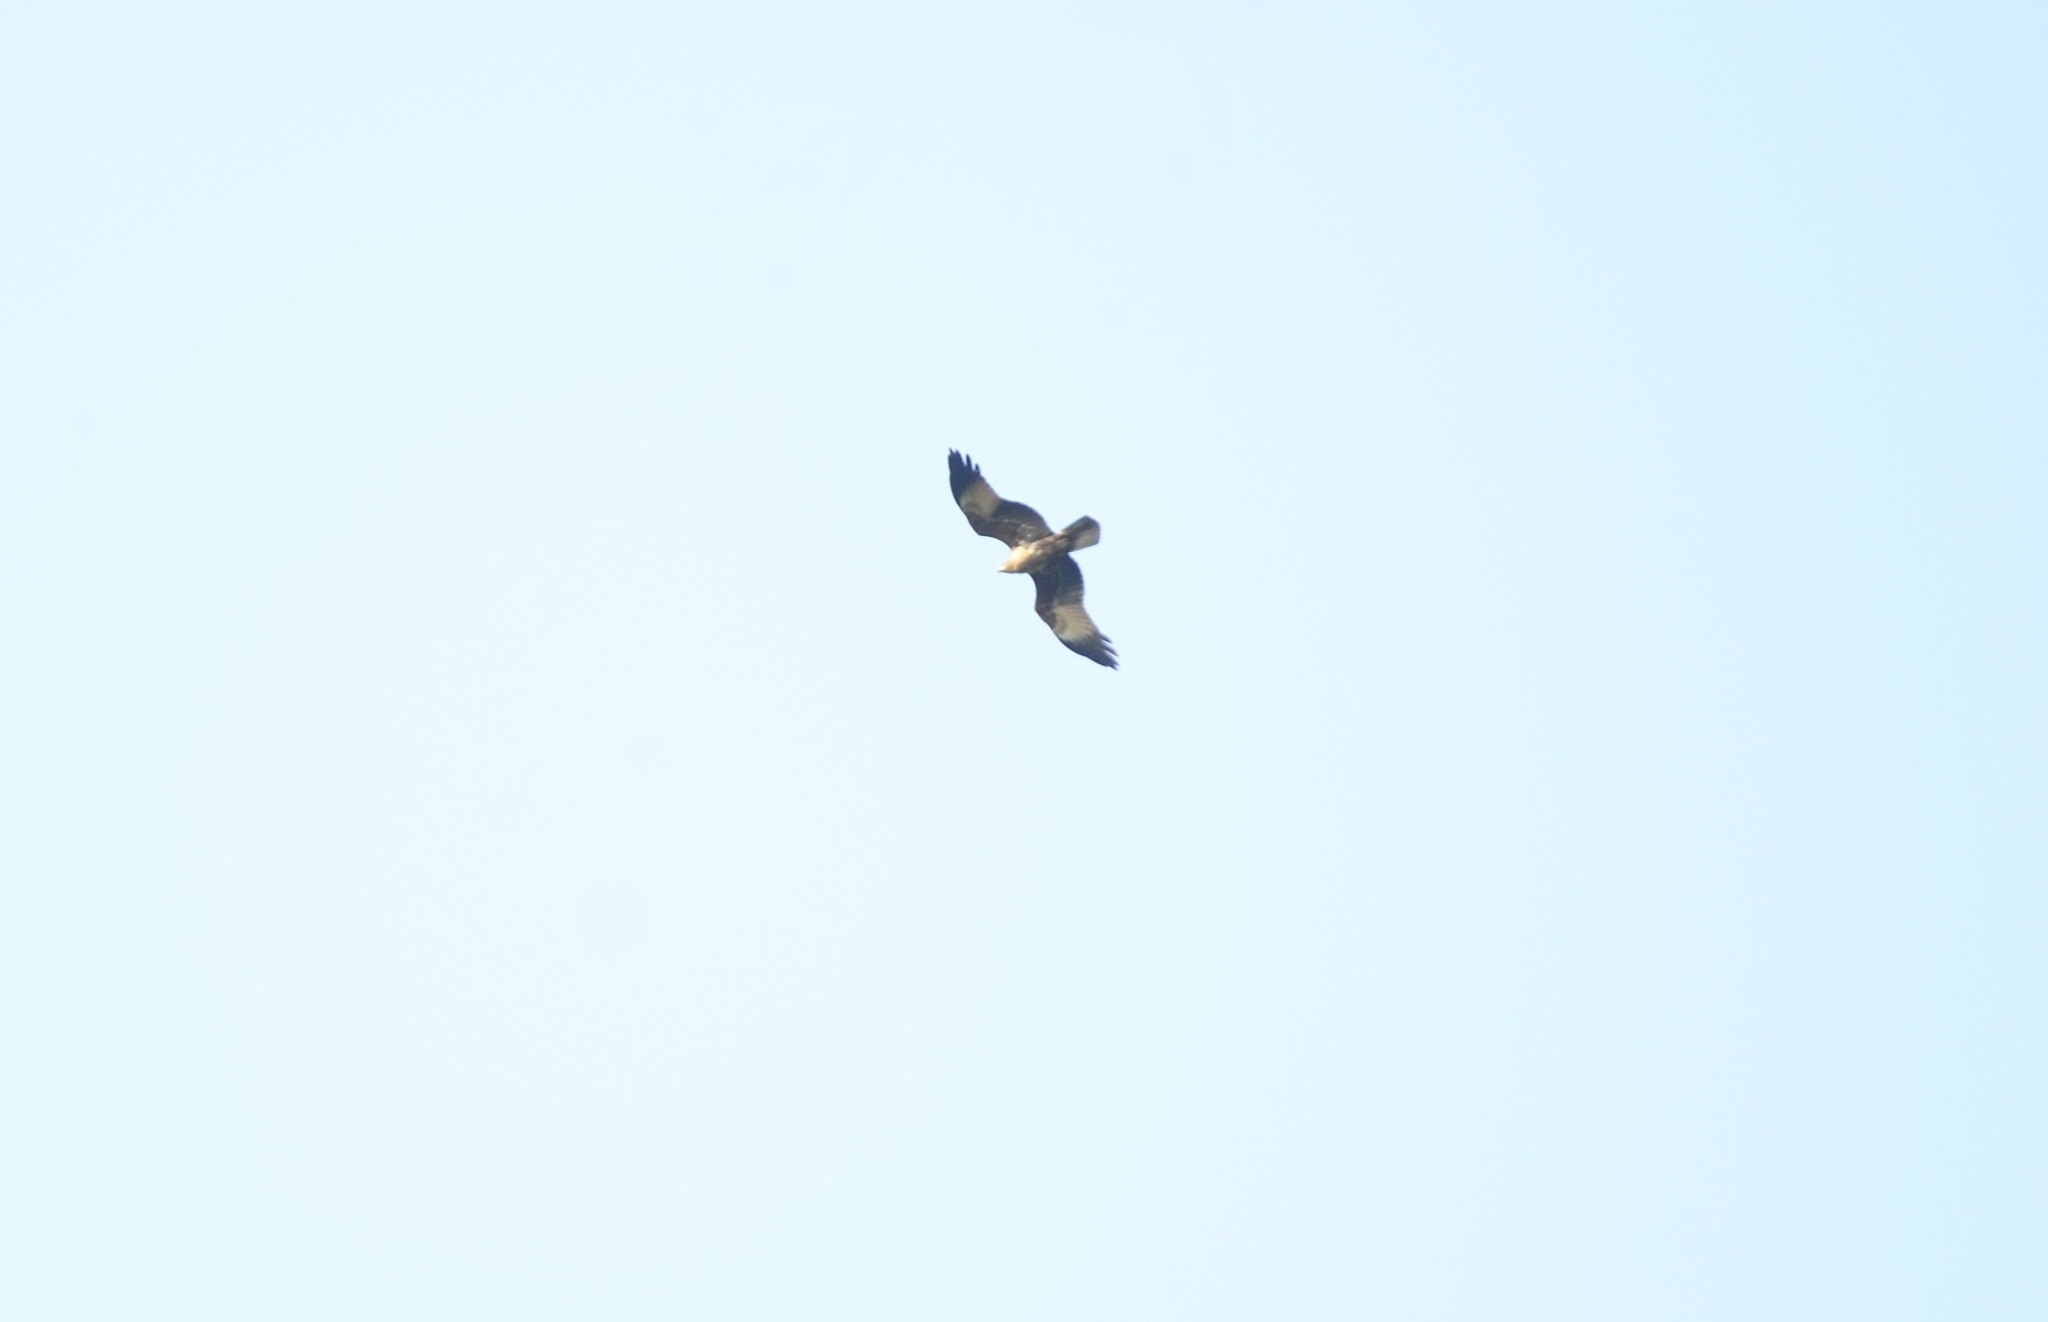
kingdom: Animalia
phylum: Chordata
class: Aves
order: Accipitriformes
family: Accipitridae
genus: Haliastur
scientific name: Haliastur indus
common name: Brahminy kite
